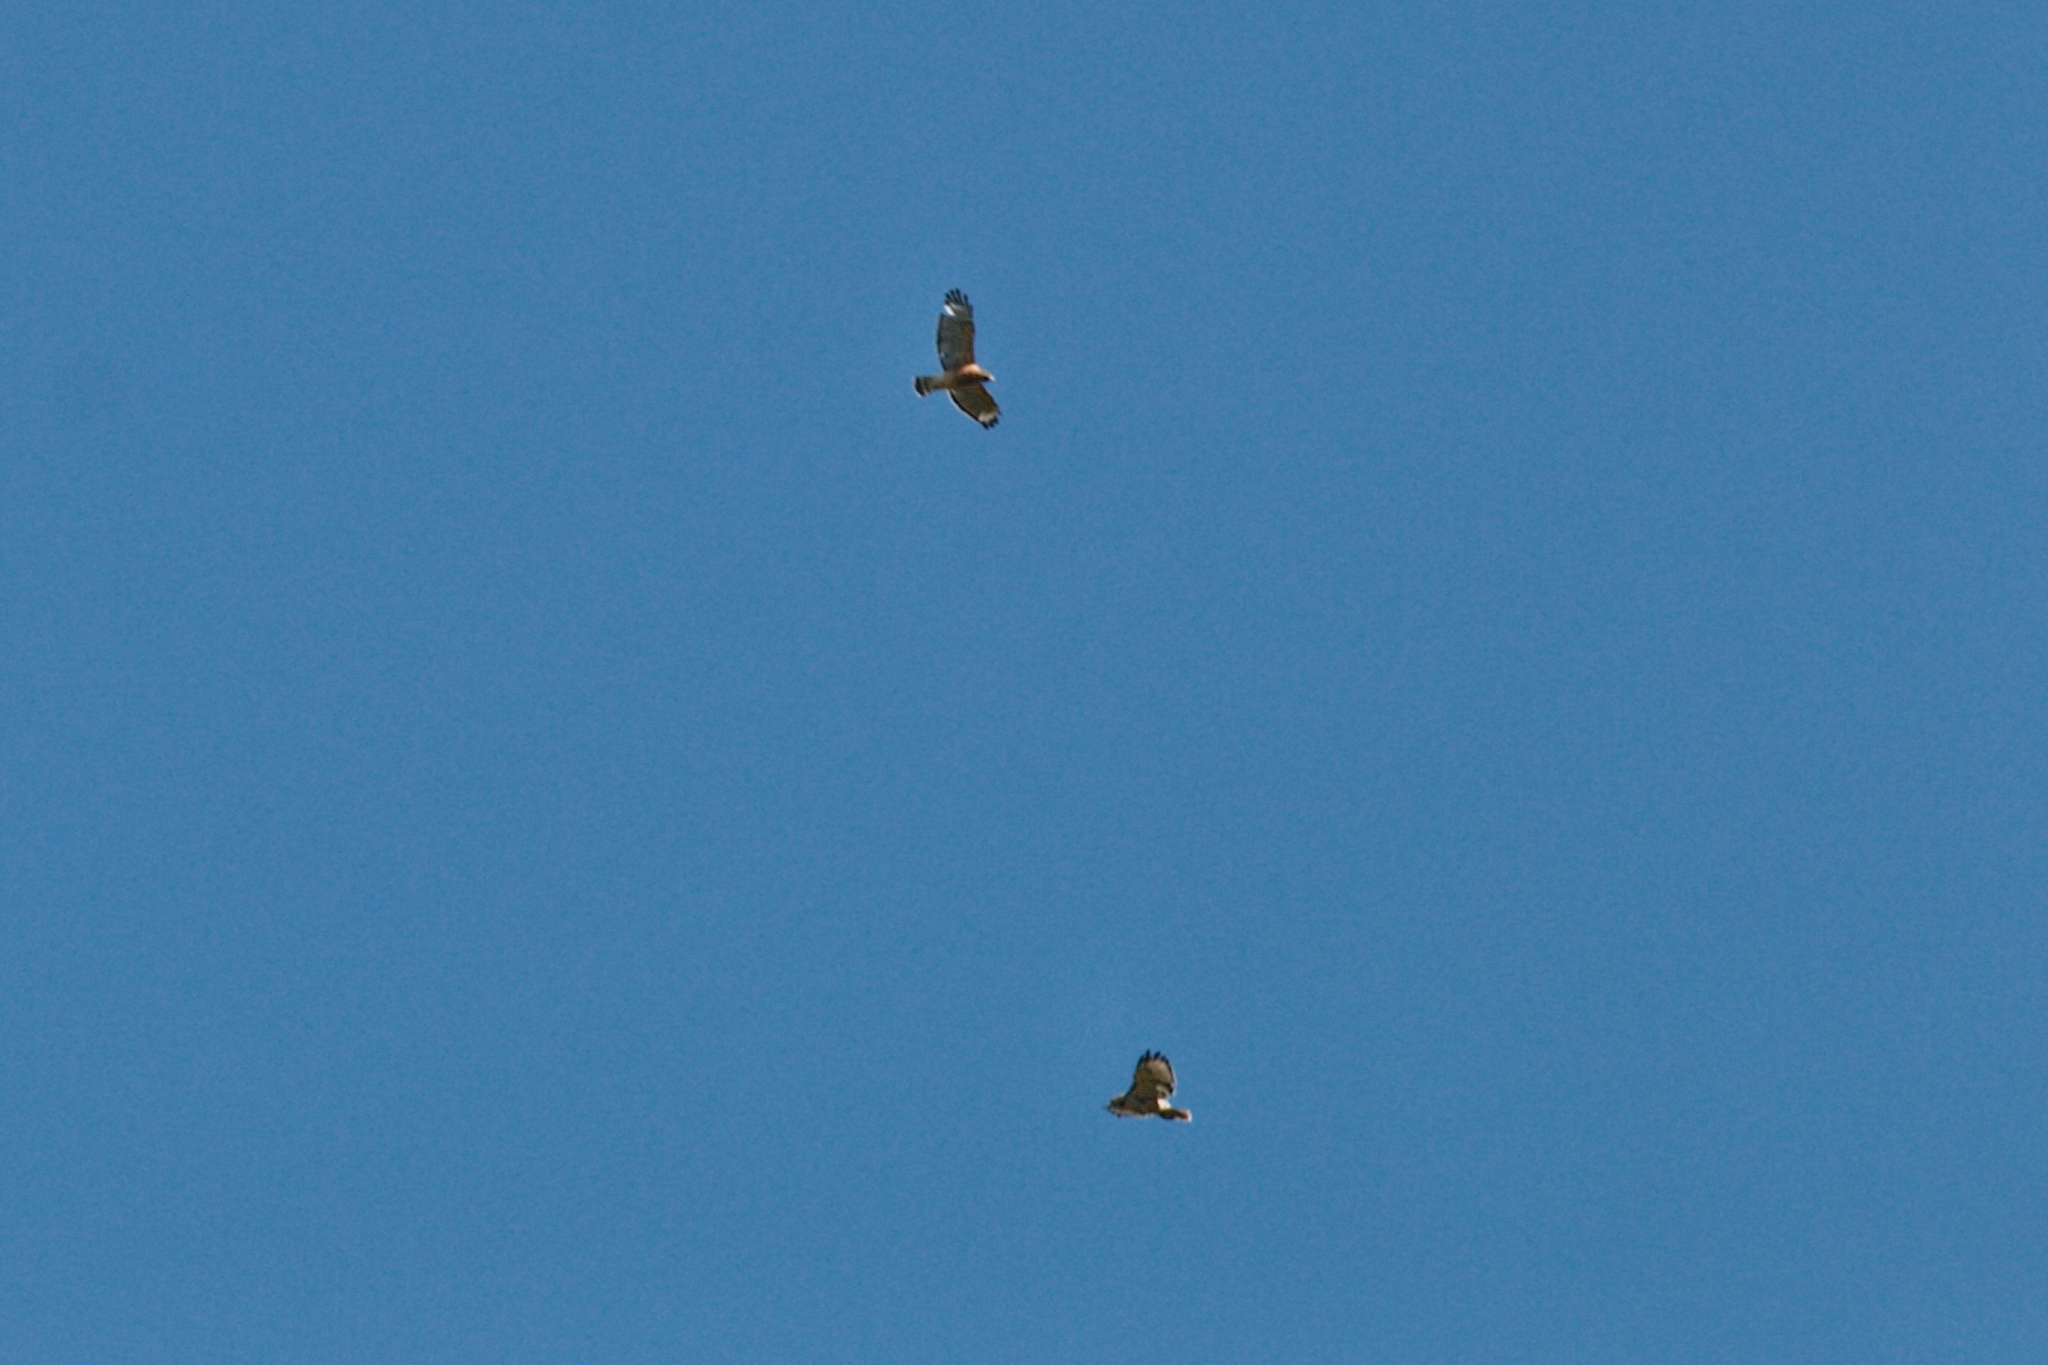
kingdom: Animalia
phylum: Chordata
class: Aves
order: Accipitriformes
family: Accipitridae
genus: Buteo
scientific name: Buteo jamaicensis
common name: Red-tailed hawk
